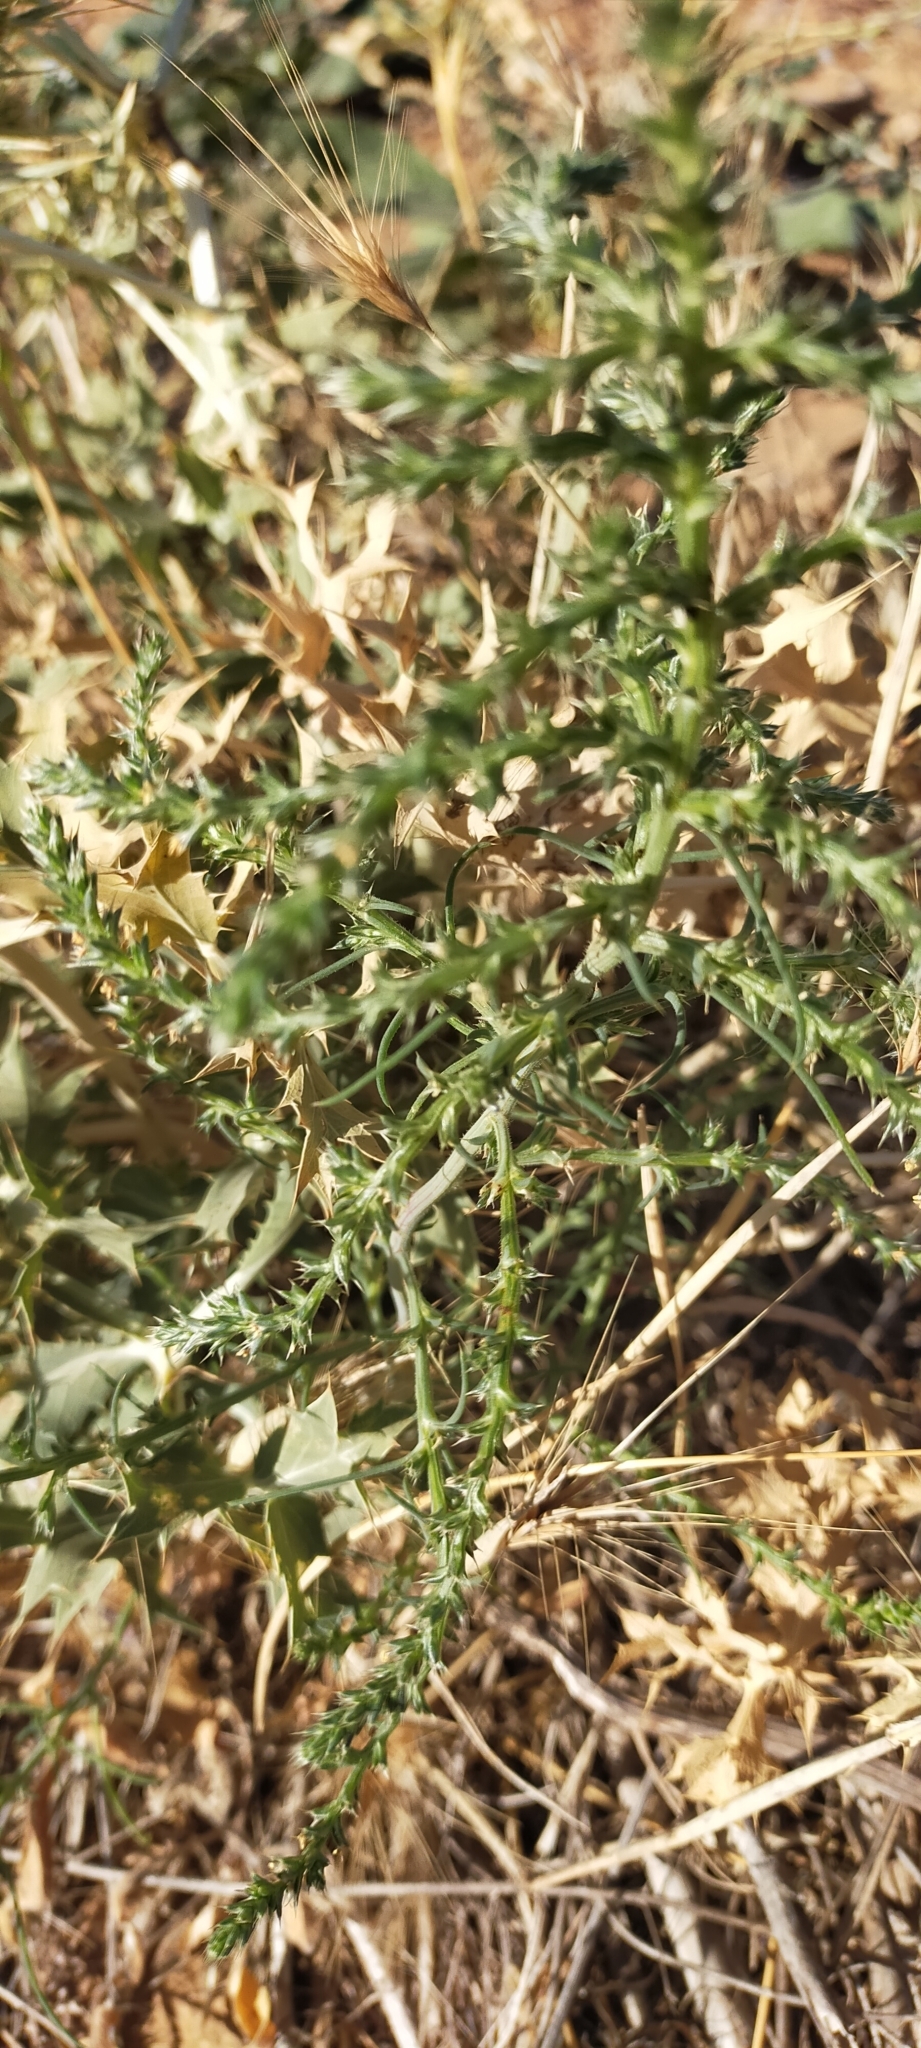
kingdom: Plantae
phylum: Tracheophyta
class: Magnoliopsida
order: Caryophyllales
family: Amaranthaceae
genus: Salsola
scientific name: Salsola kali
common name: Saltwort
